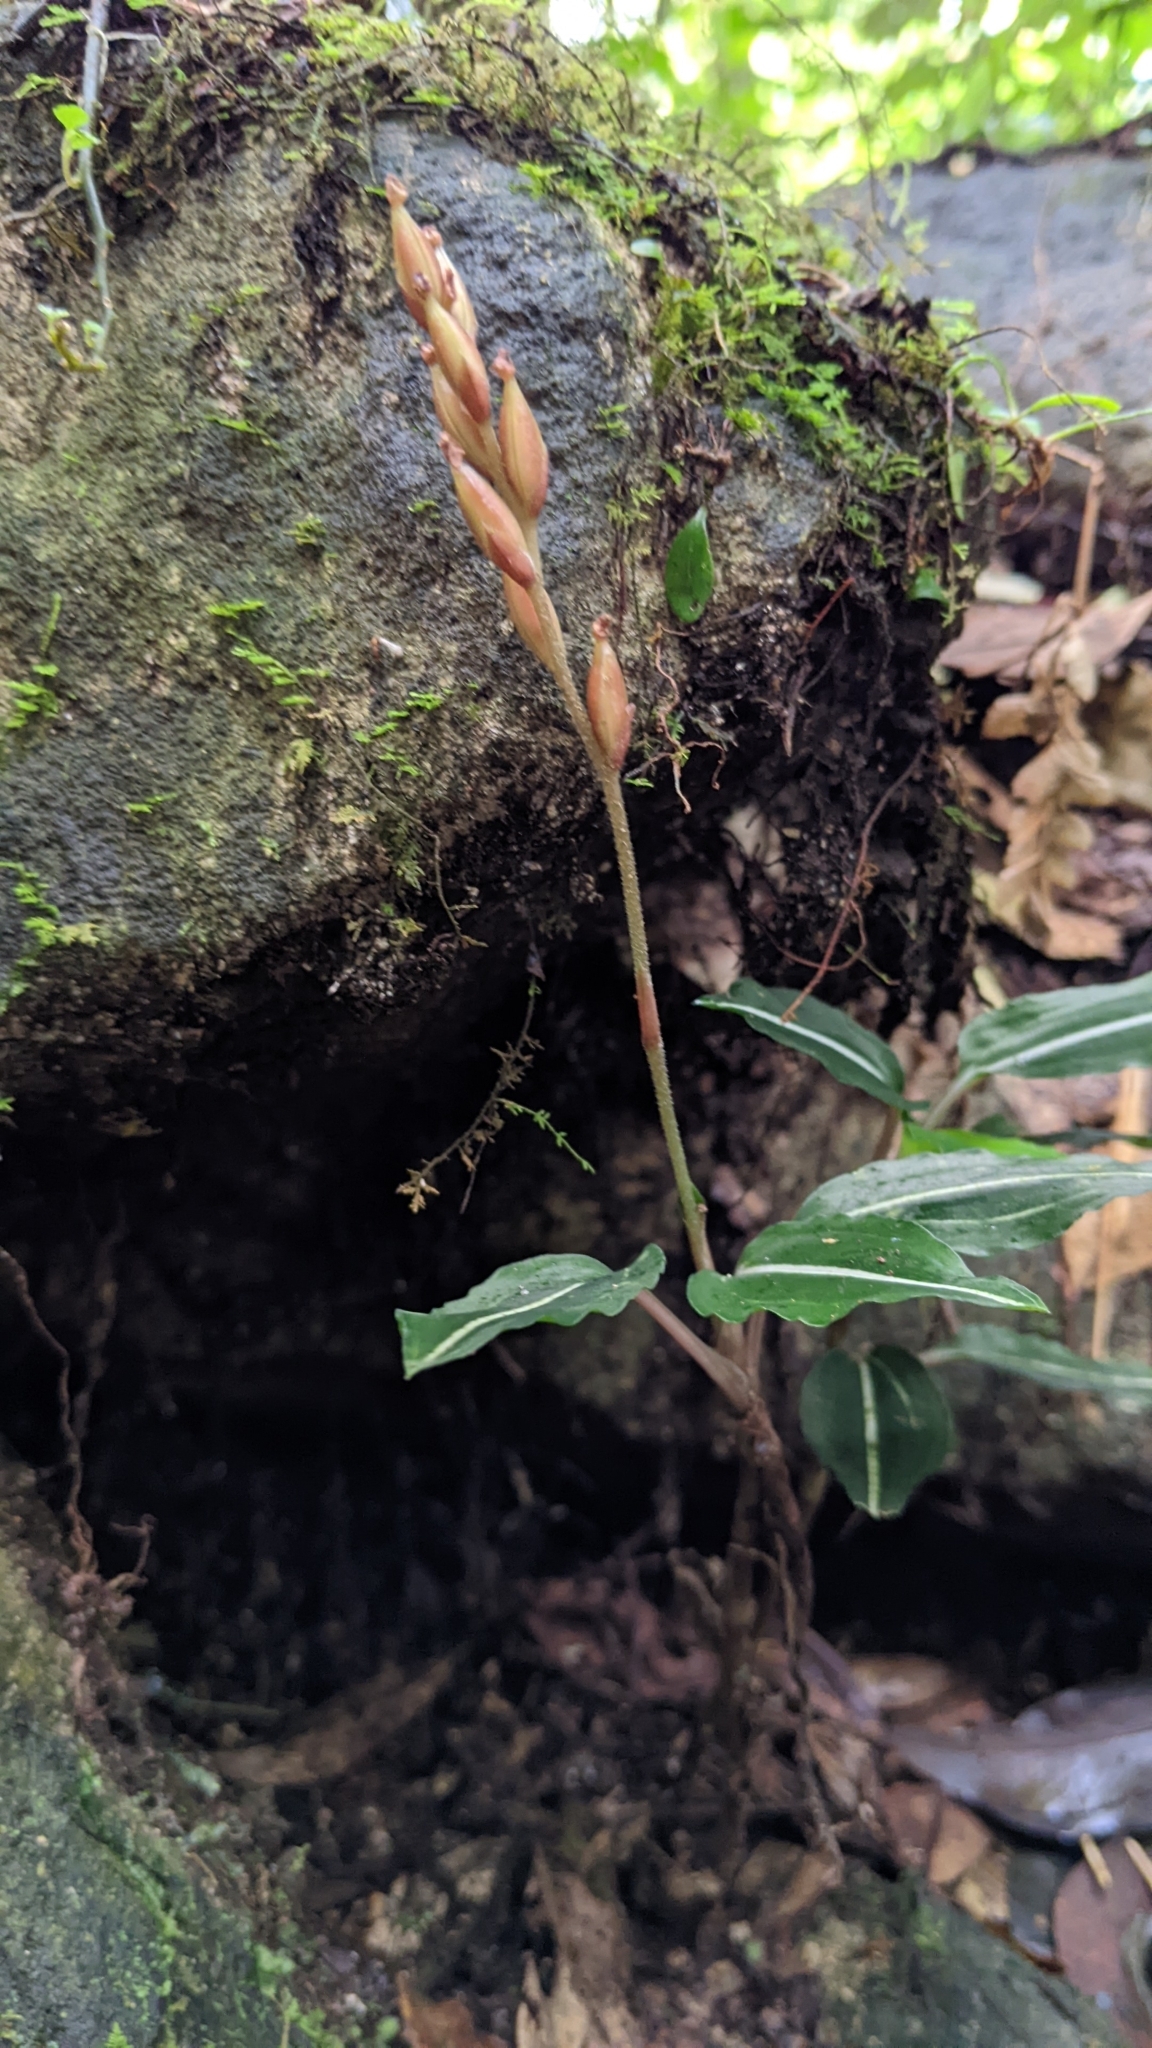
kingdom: Plantae
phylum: Tracheophyta
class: Liliopsida
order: Asparagales
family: Orchidaceae
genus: Rhomboda
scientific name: Rhomboda yakusimensis
